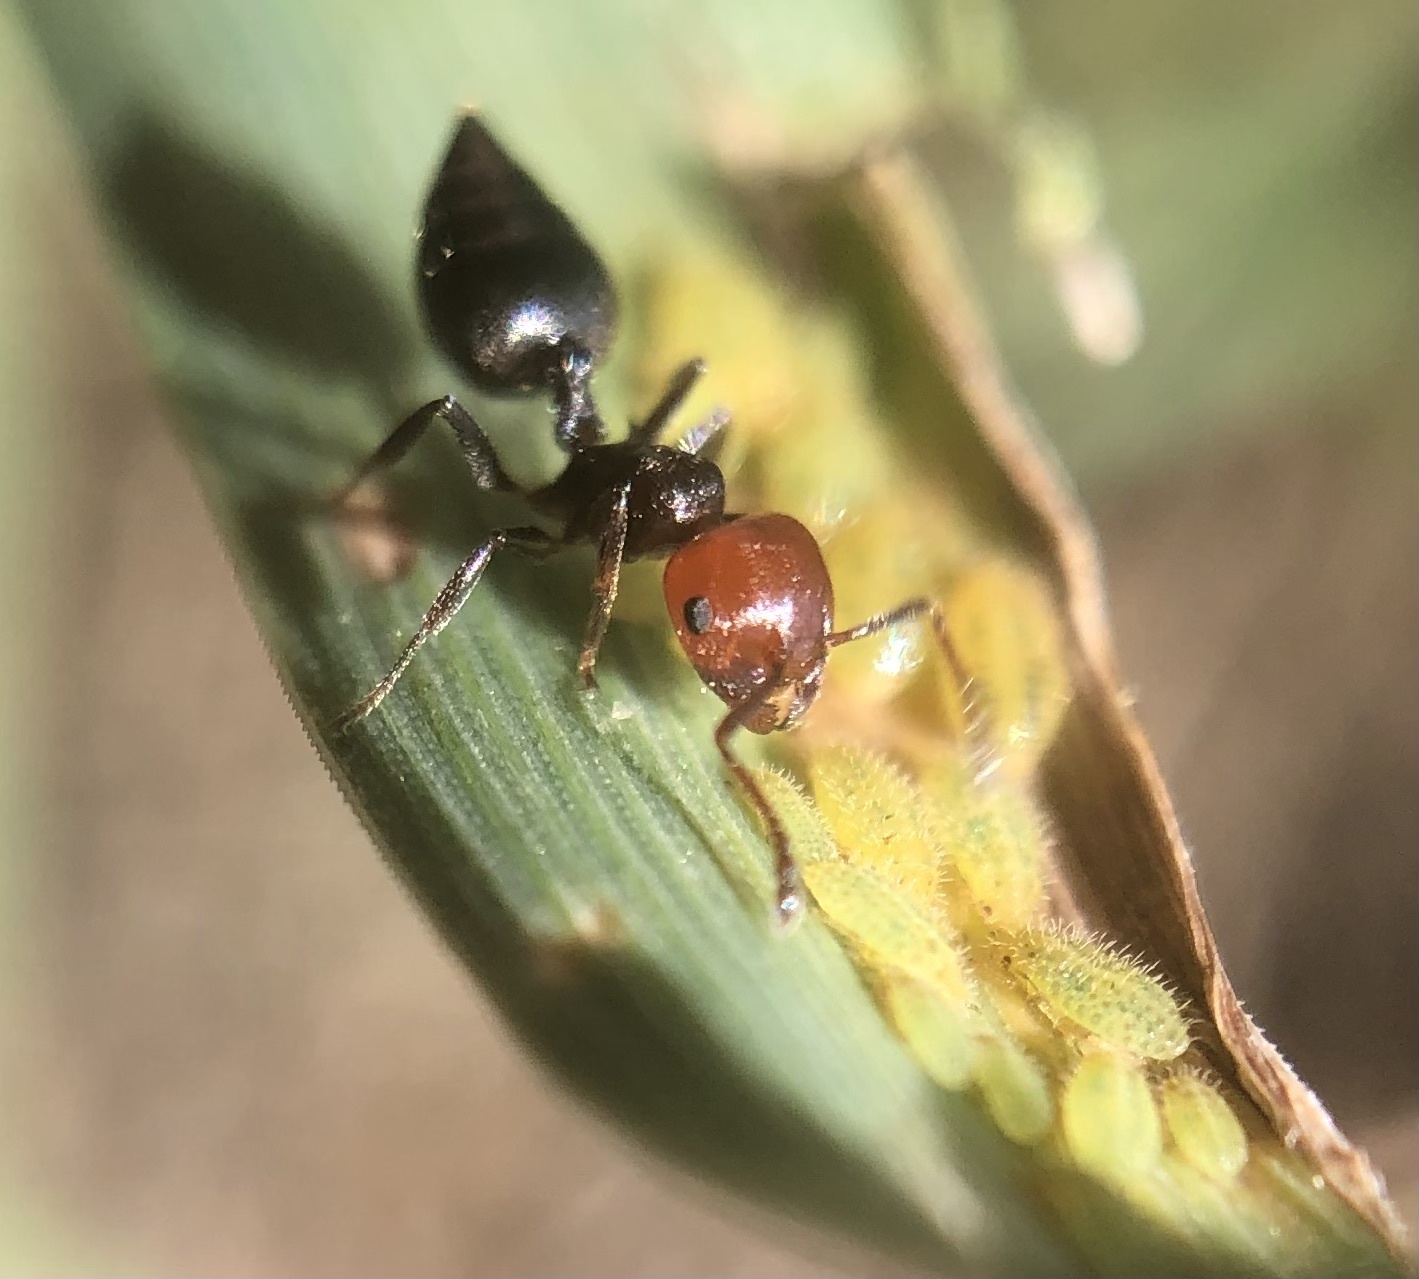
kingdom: Animalia
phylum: Arthropoda
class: Insecta
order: Hymenoptera
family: Formicidae
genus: Crematogaster
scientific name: Crematogaster scutellaris
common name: Fourmi du liège
